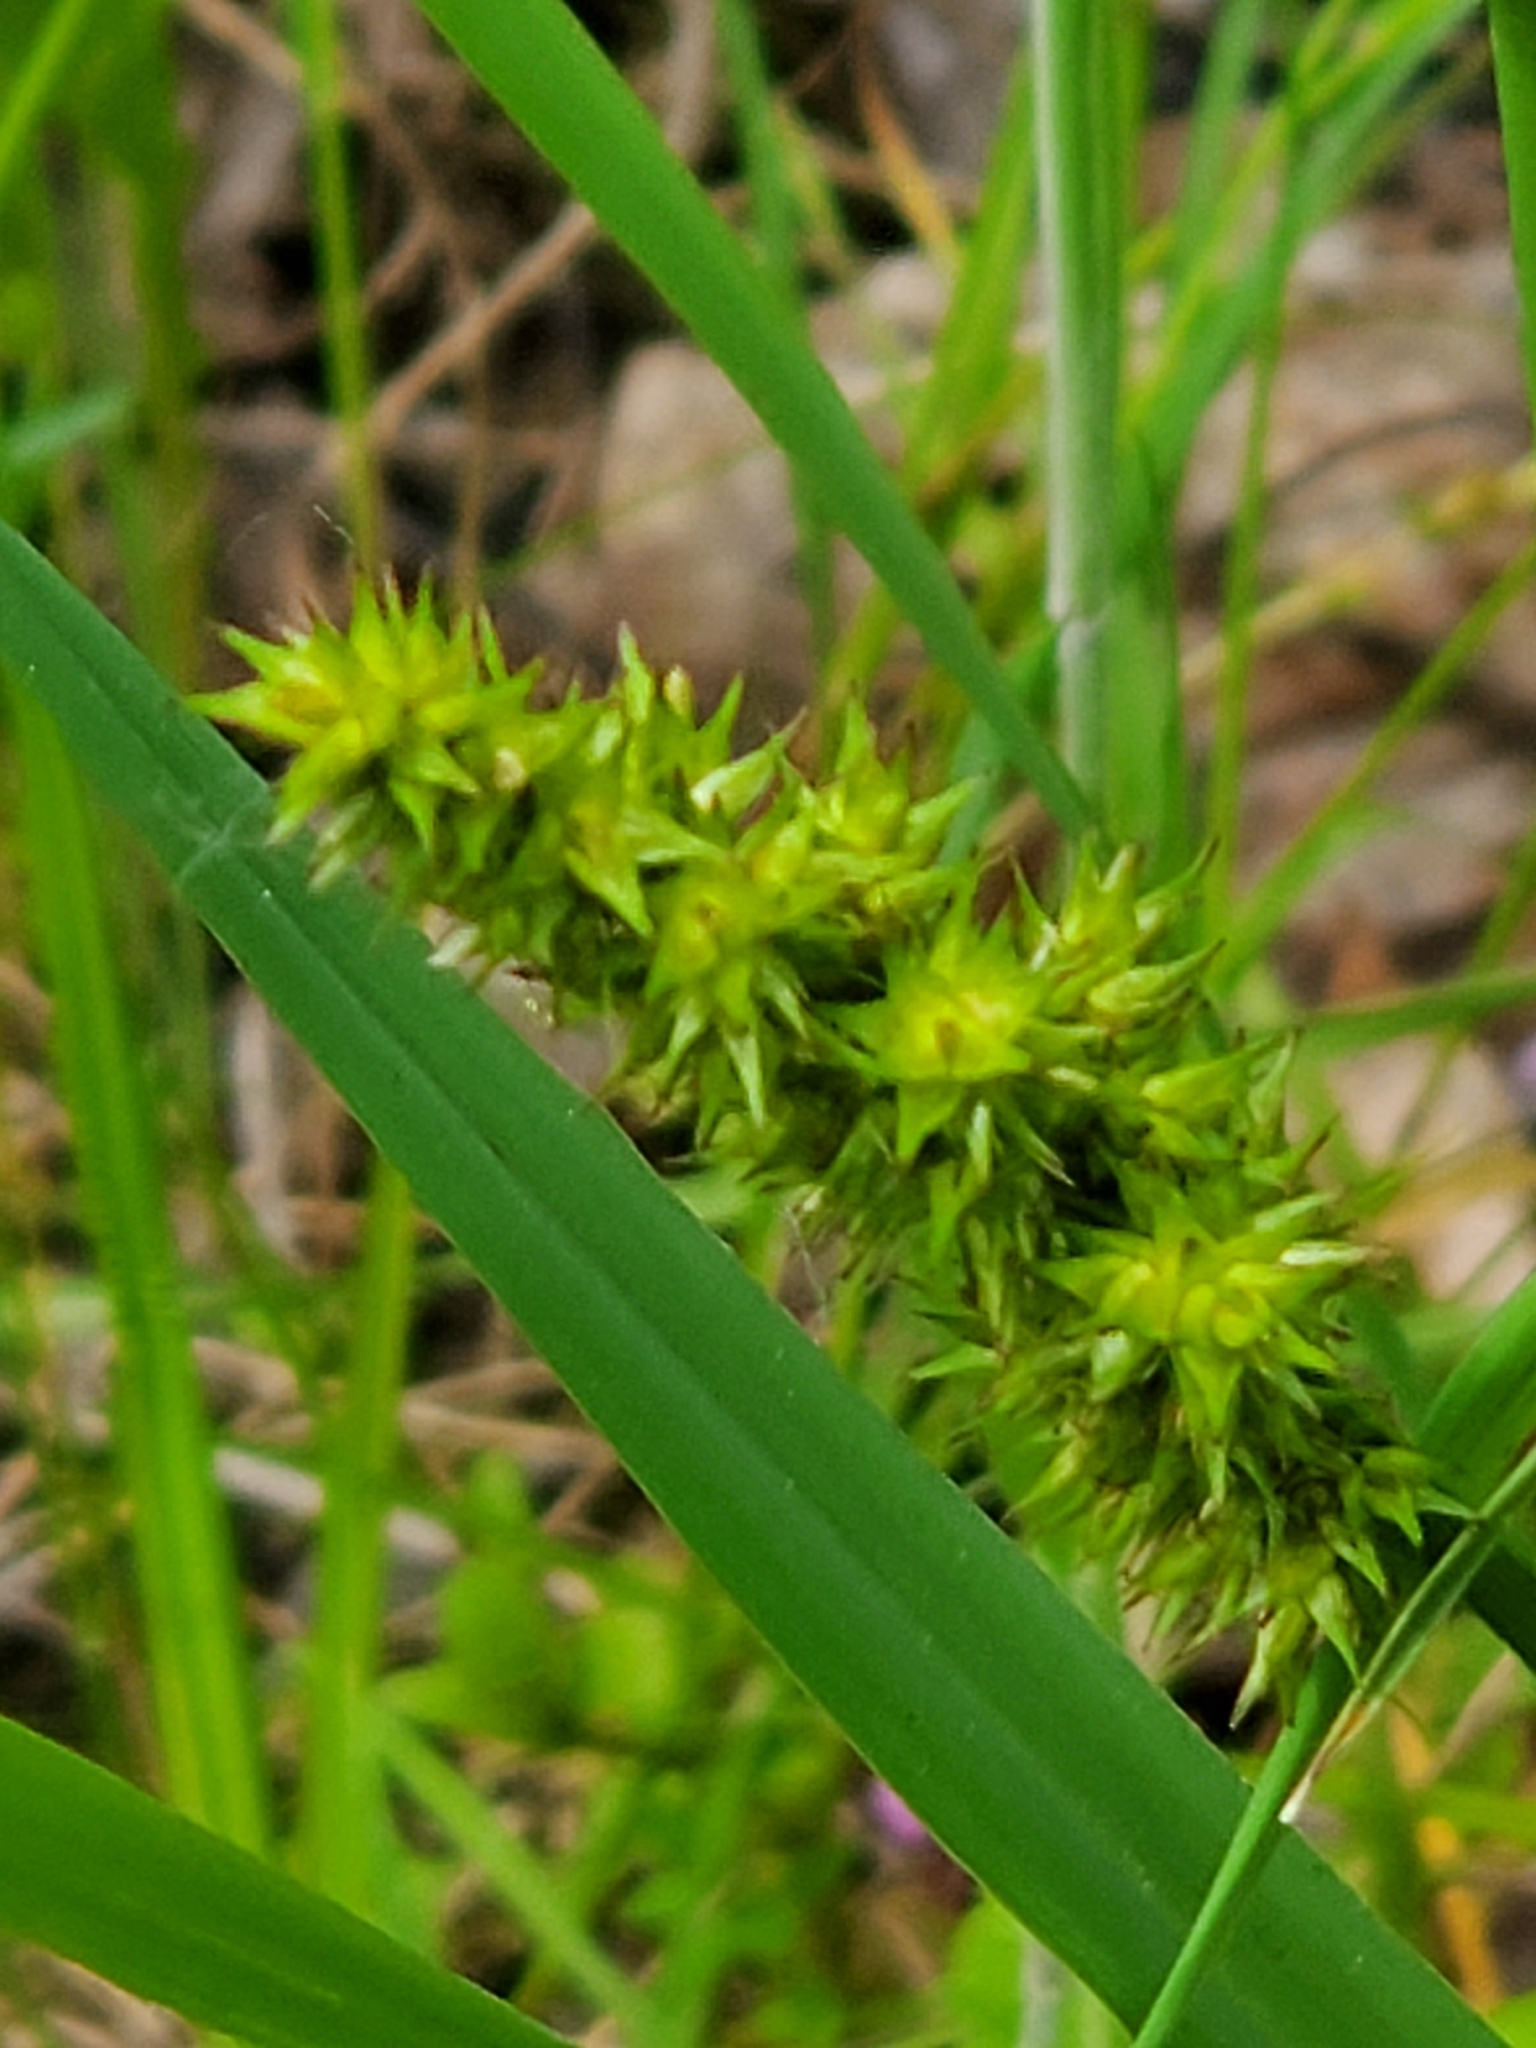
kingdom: Plantae
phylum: Tracheophyta
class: Liliopsida
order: Poales
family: Cyperaceae
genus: Carex
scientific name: Carex stipata
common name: Awl-fruited sedge
